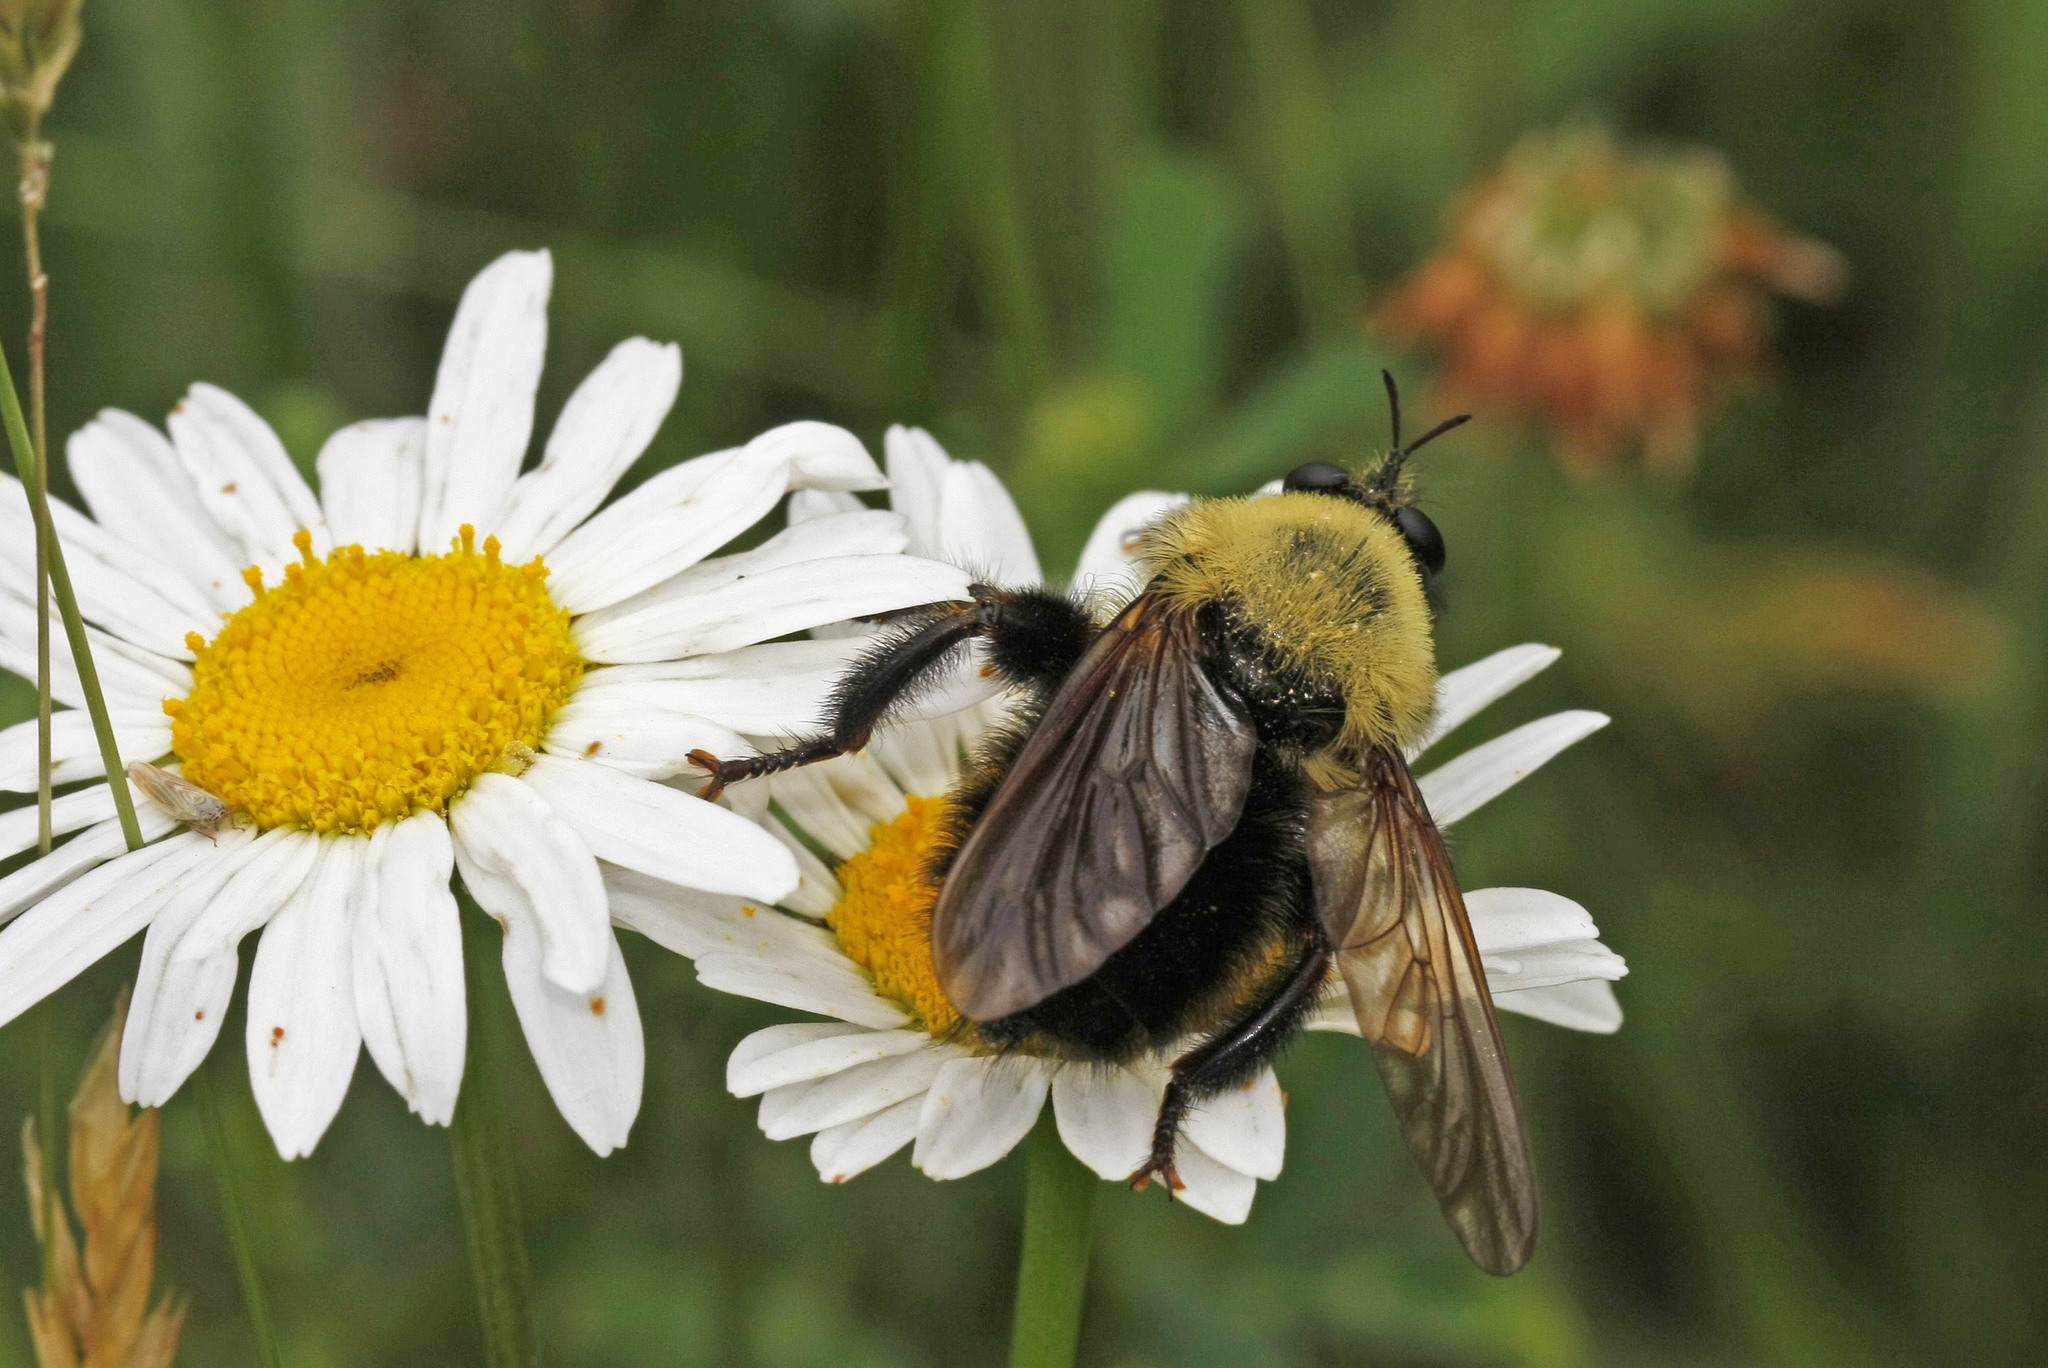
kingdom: Animalia
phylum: Arthropoda
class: Insecta
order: Diptera
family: Asilidae
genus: Laphria
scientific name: Laphria thoracica
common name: Bumble bee mimic robber fly
